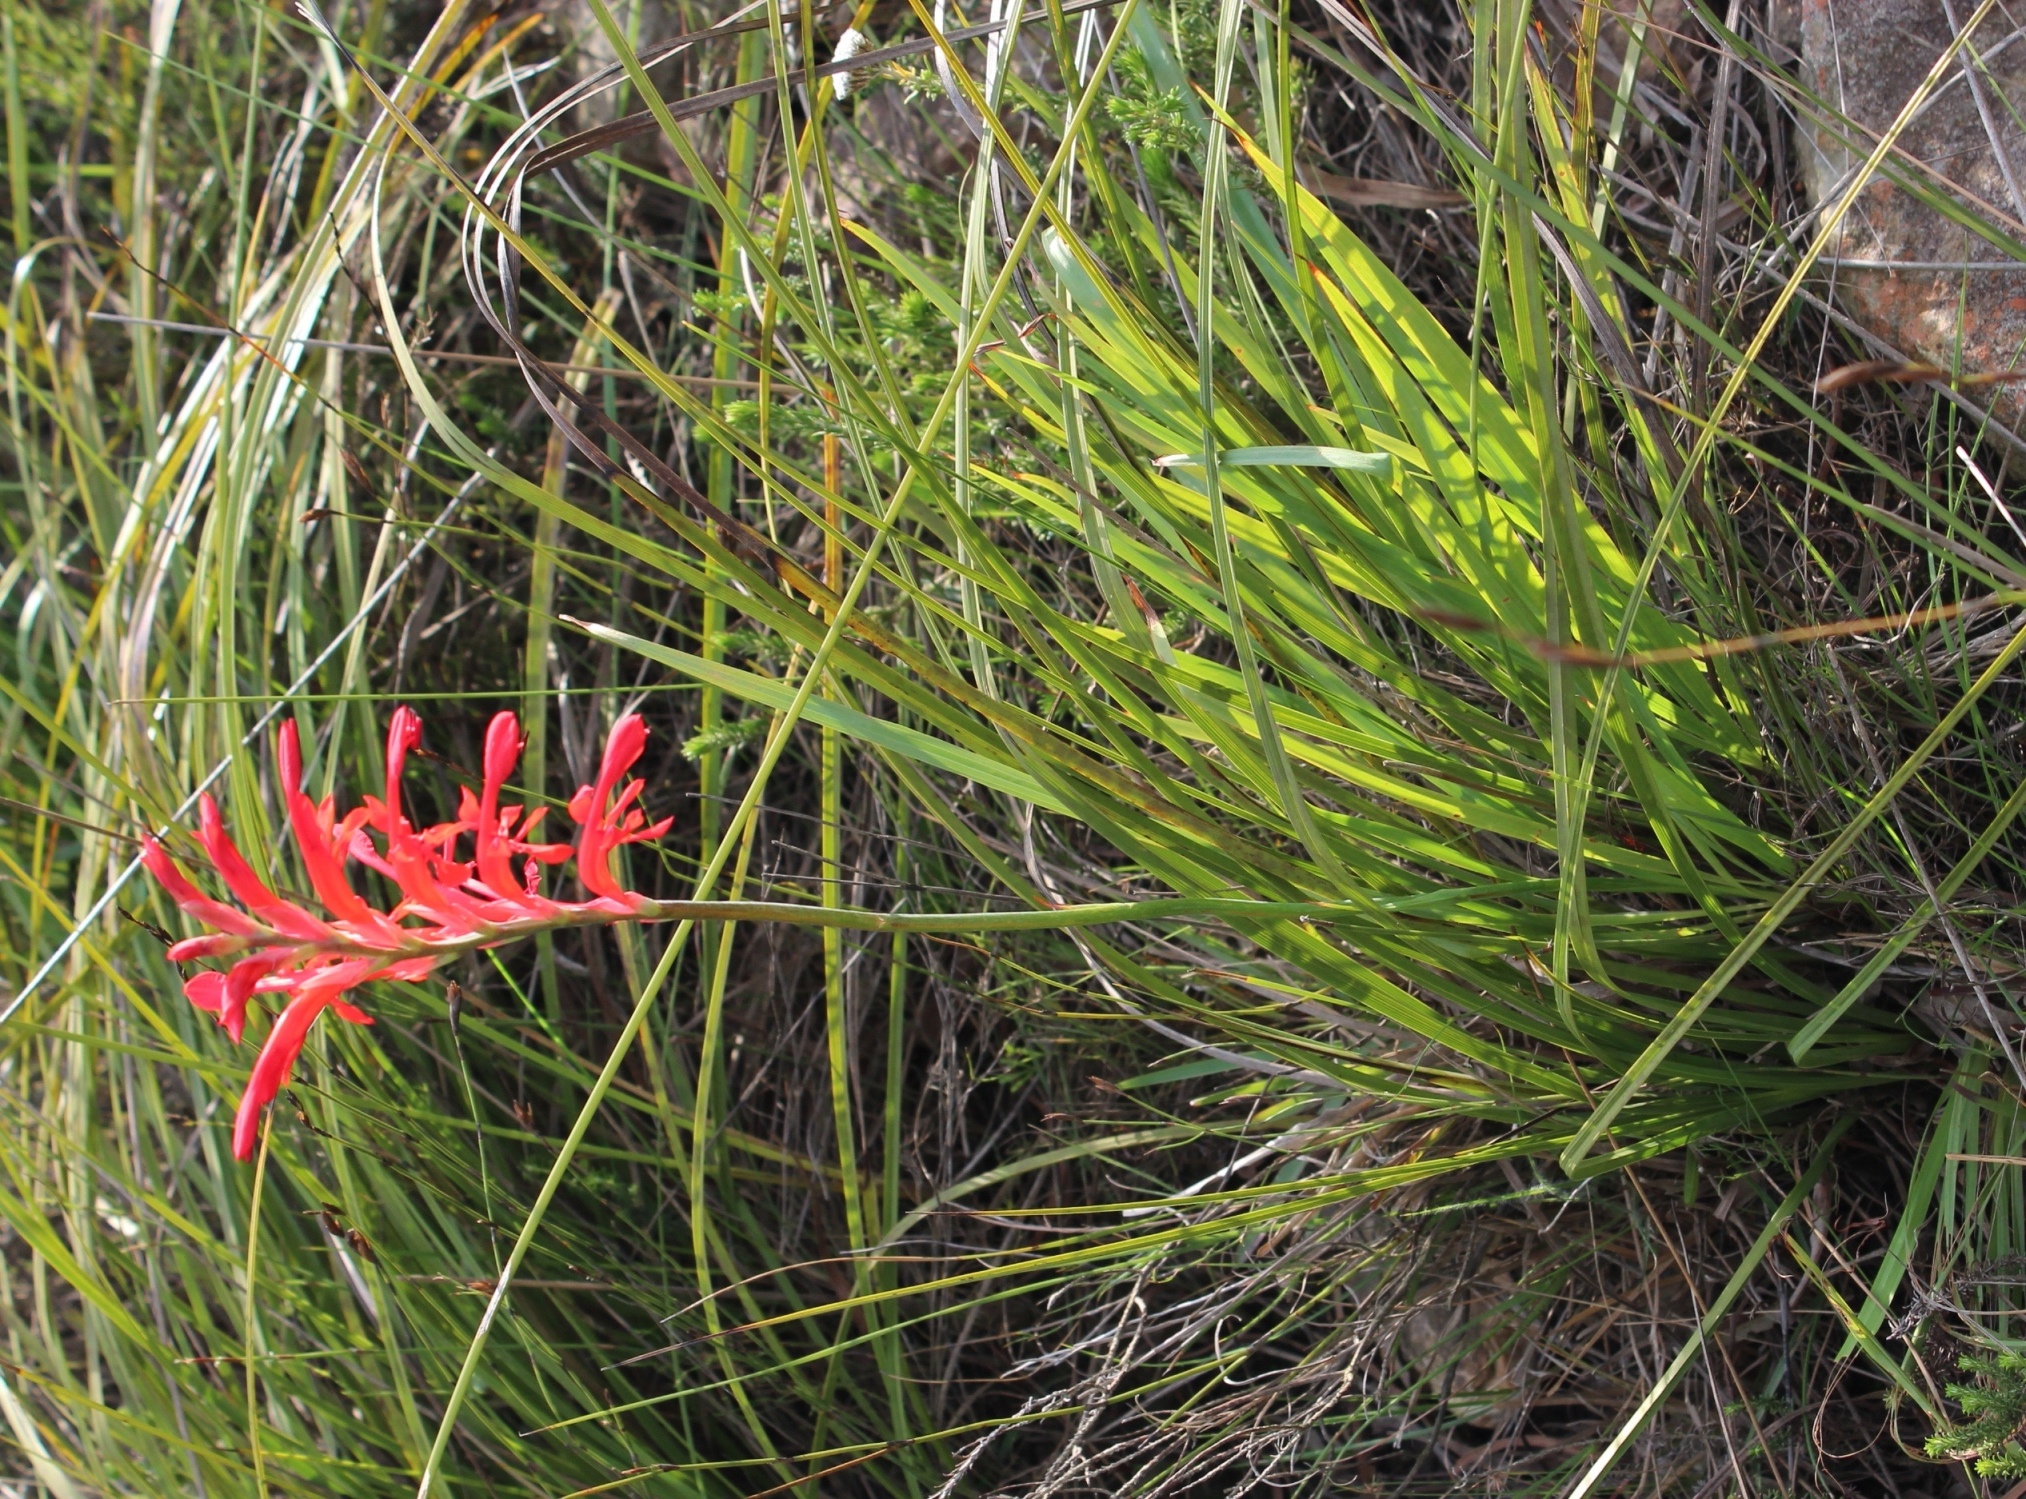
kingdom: Plantae
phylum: Tracheophyta
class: Liliopsida
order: Asparagales
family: Iridaceae
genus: Tritoniopsis
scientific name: Tritoniopsis caffra
